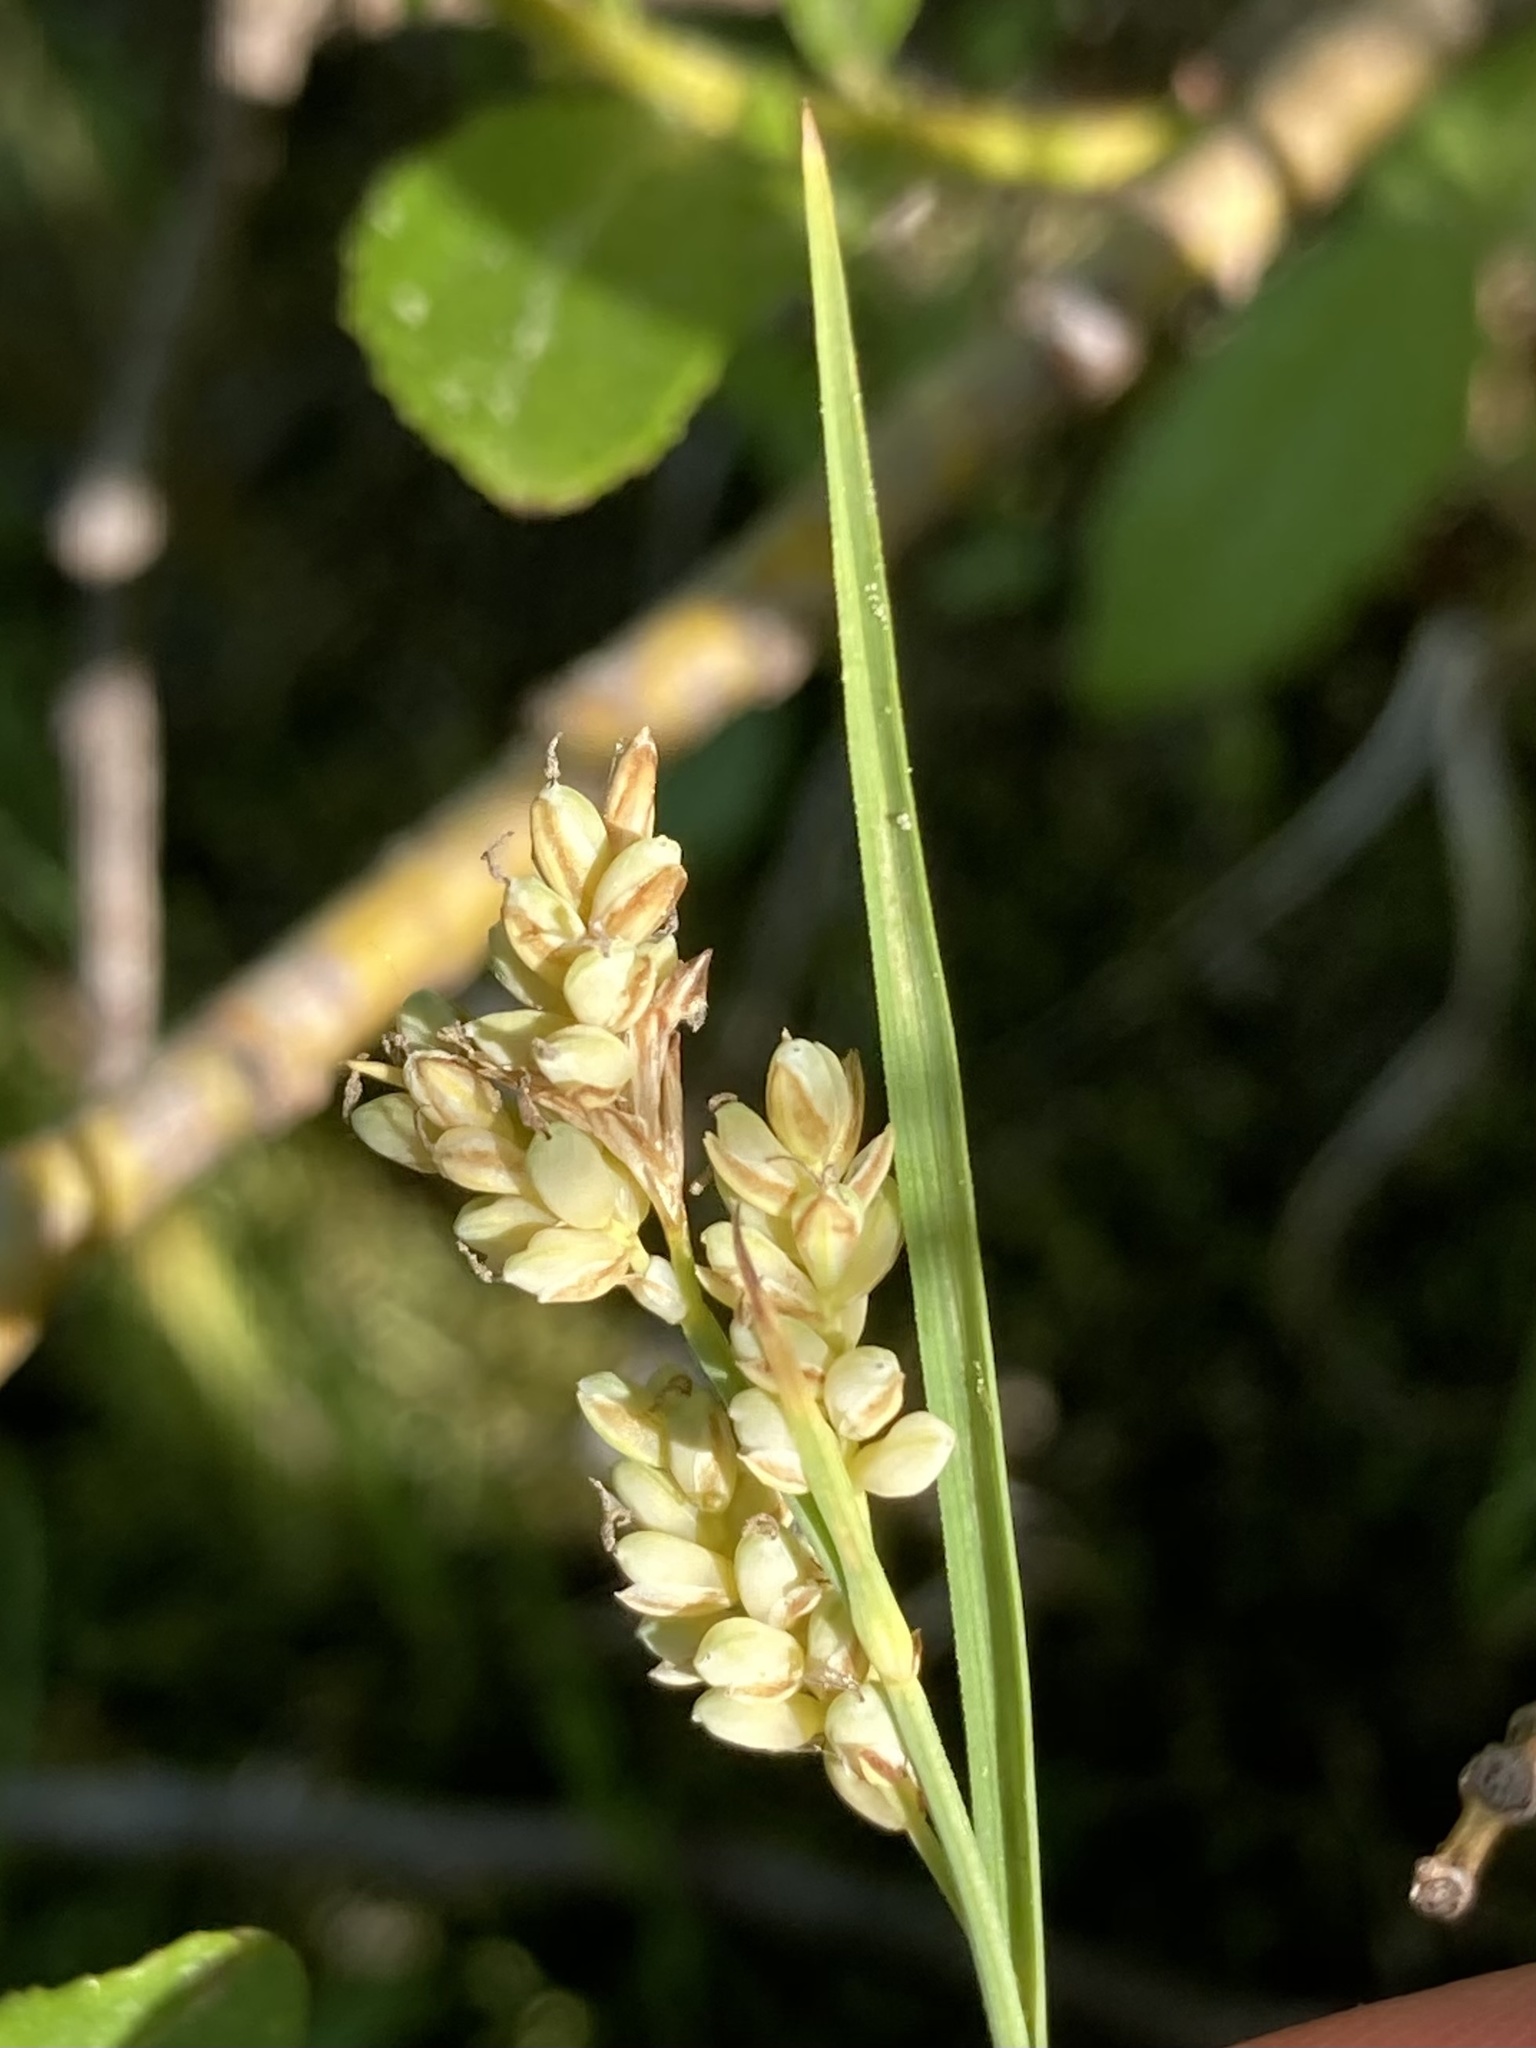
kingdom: Plantae
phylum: Tracheophyta
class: Liliopsida
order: Poales
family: Cyperaceae
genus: Carex
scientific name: Carex garberi
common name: Elk sedge
